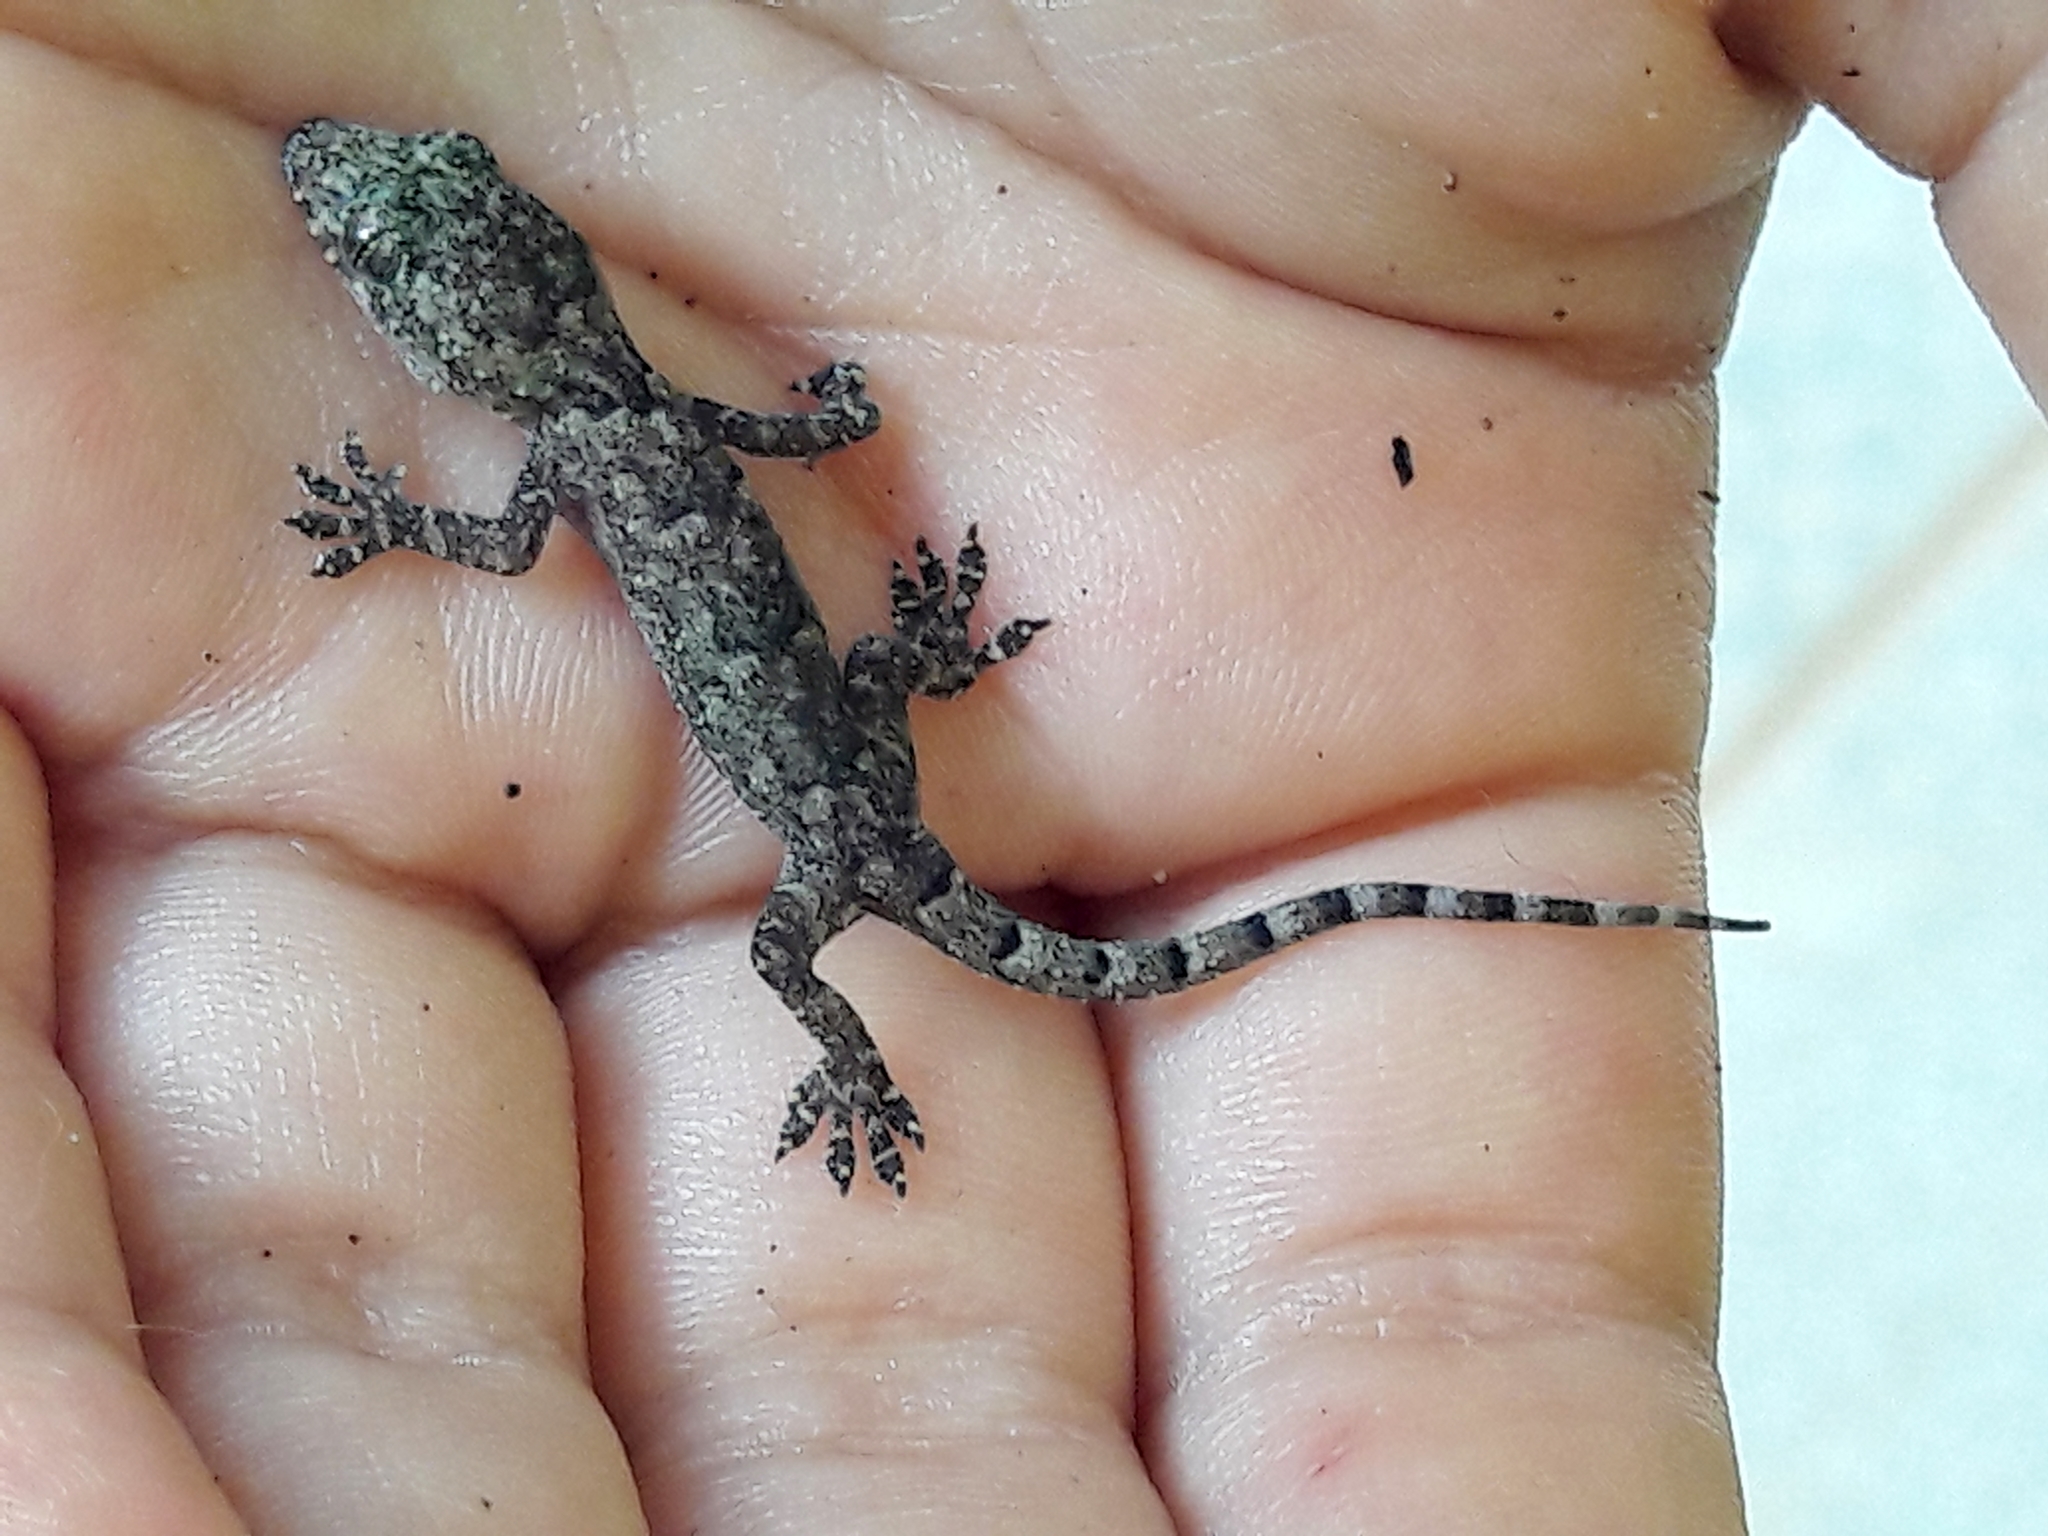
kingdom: Animalia
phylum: Chordata
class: Squamata
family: Gekkonidae
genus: Hemidactylus
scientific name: Hemidactylus mabouia
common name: House gecko
